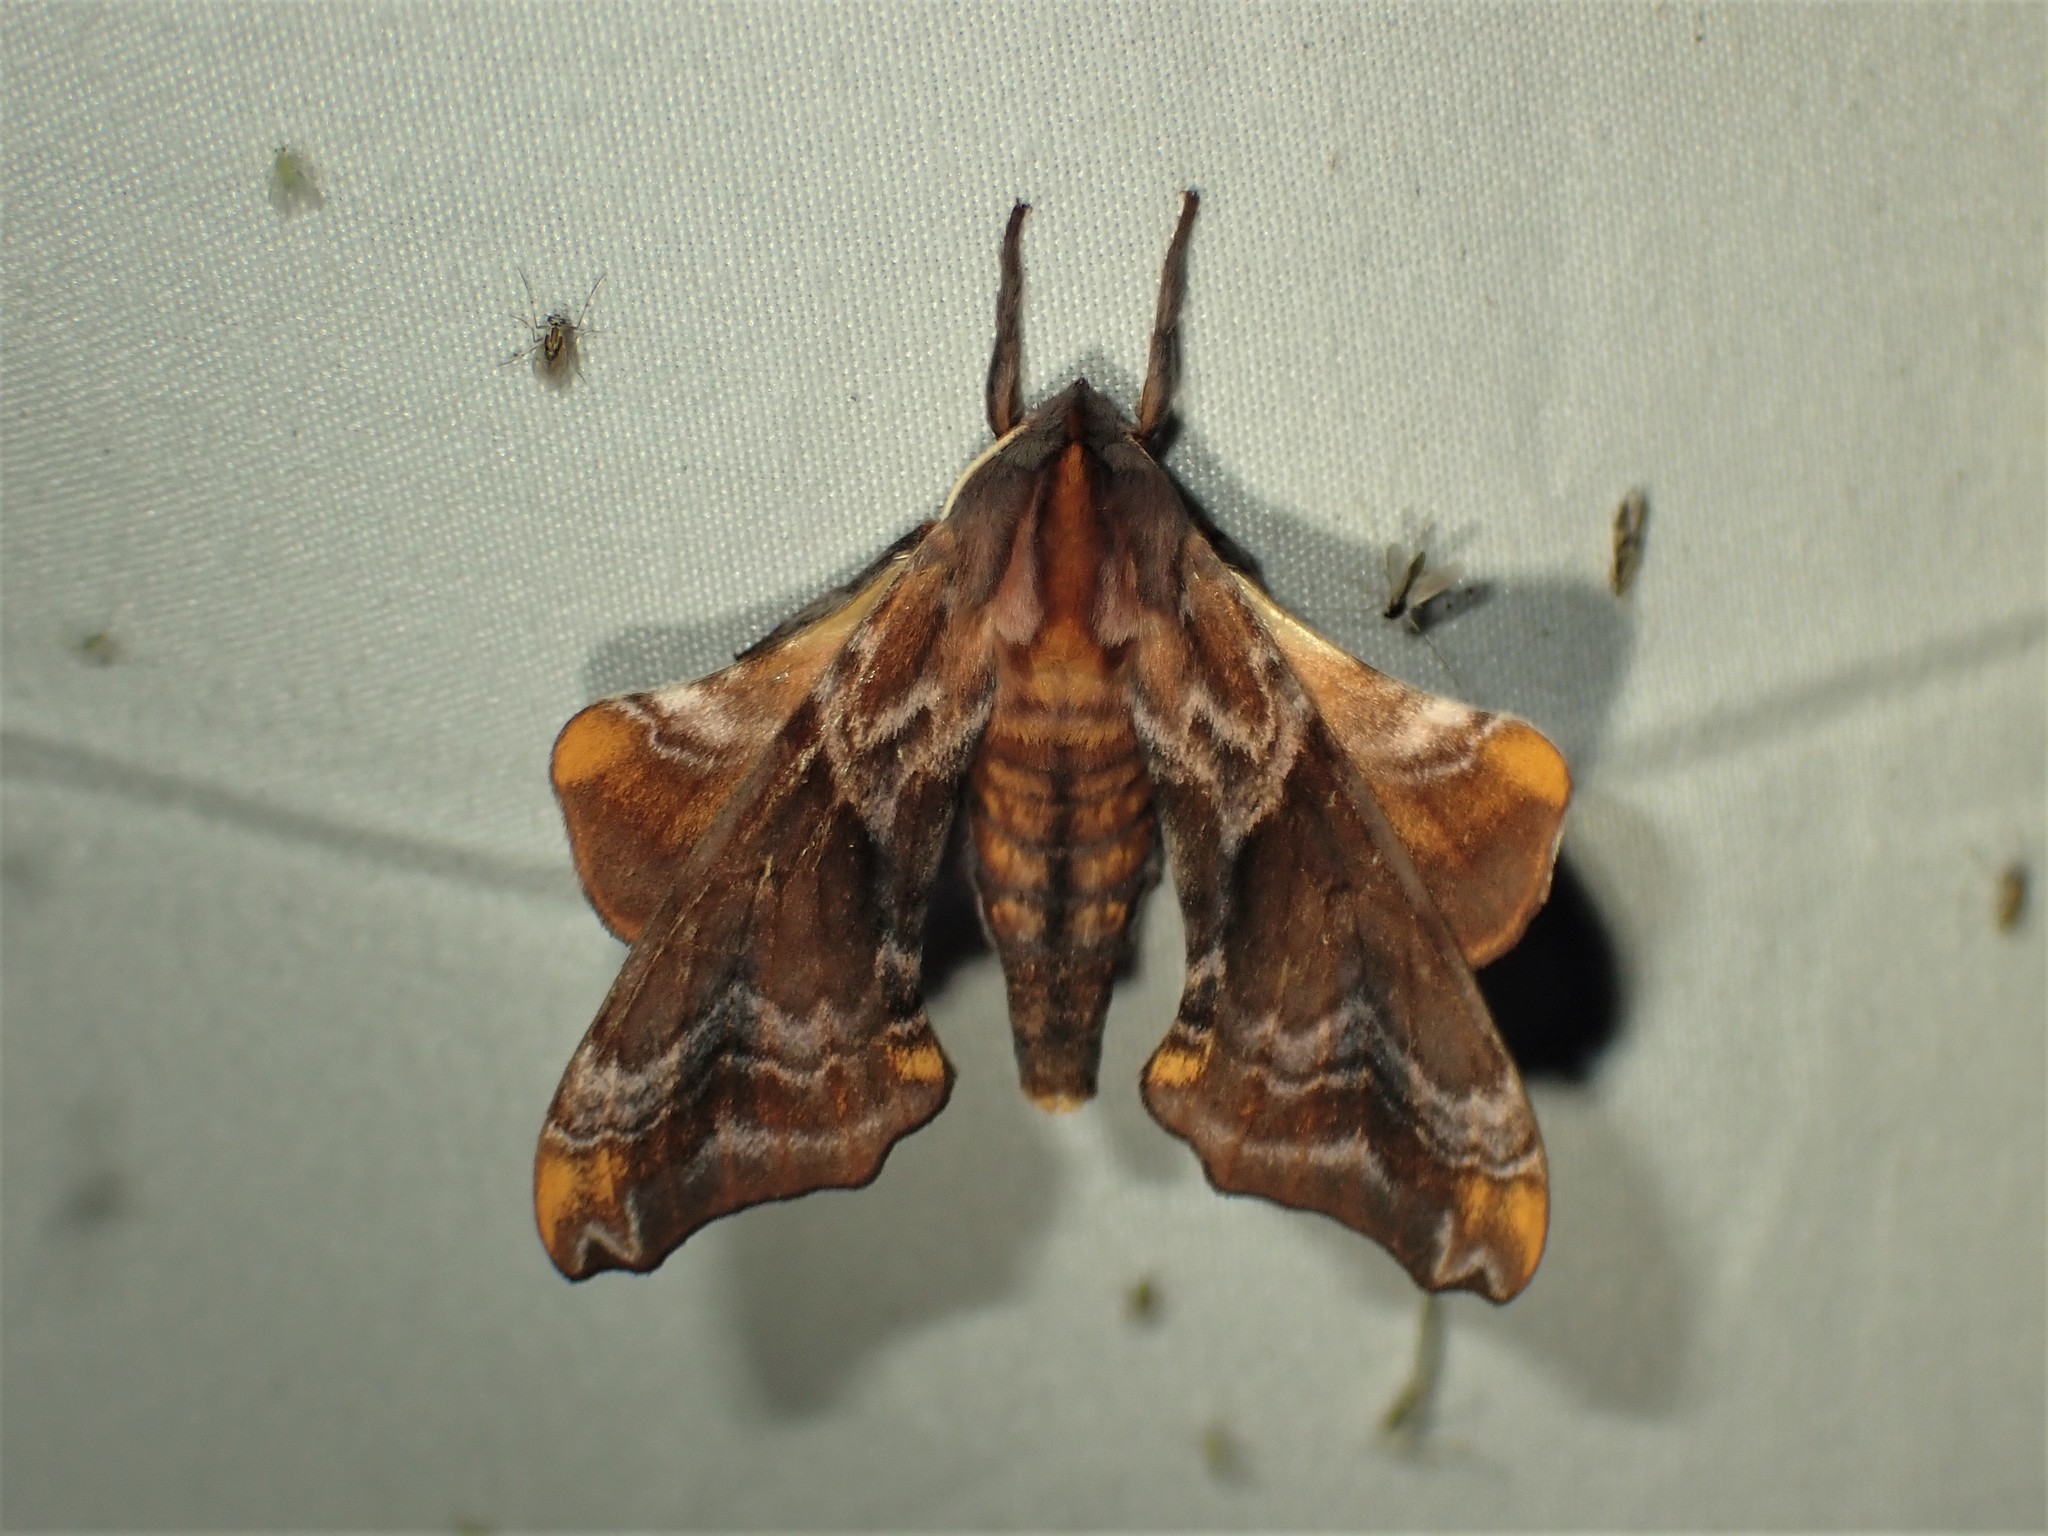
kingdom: Animalia
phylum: Arthropoda
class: Insecta
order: Lepidoptera
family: Sphingidae
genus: Paonias
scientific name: Paonias myops
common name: Small-eyed sphinx
